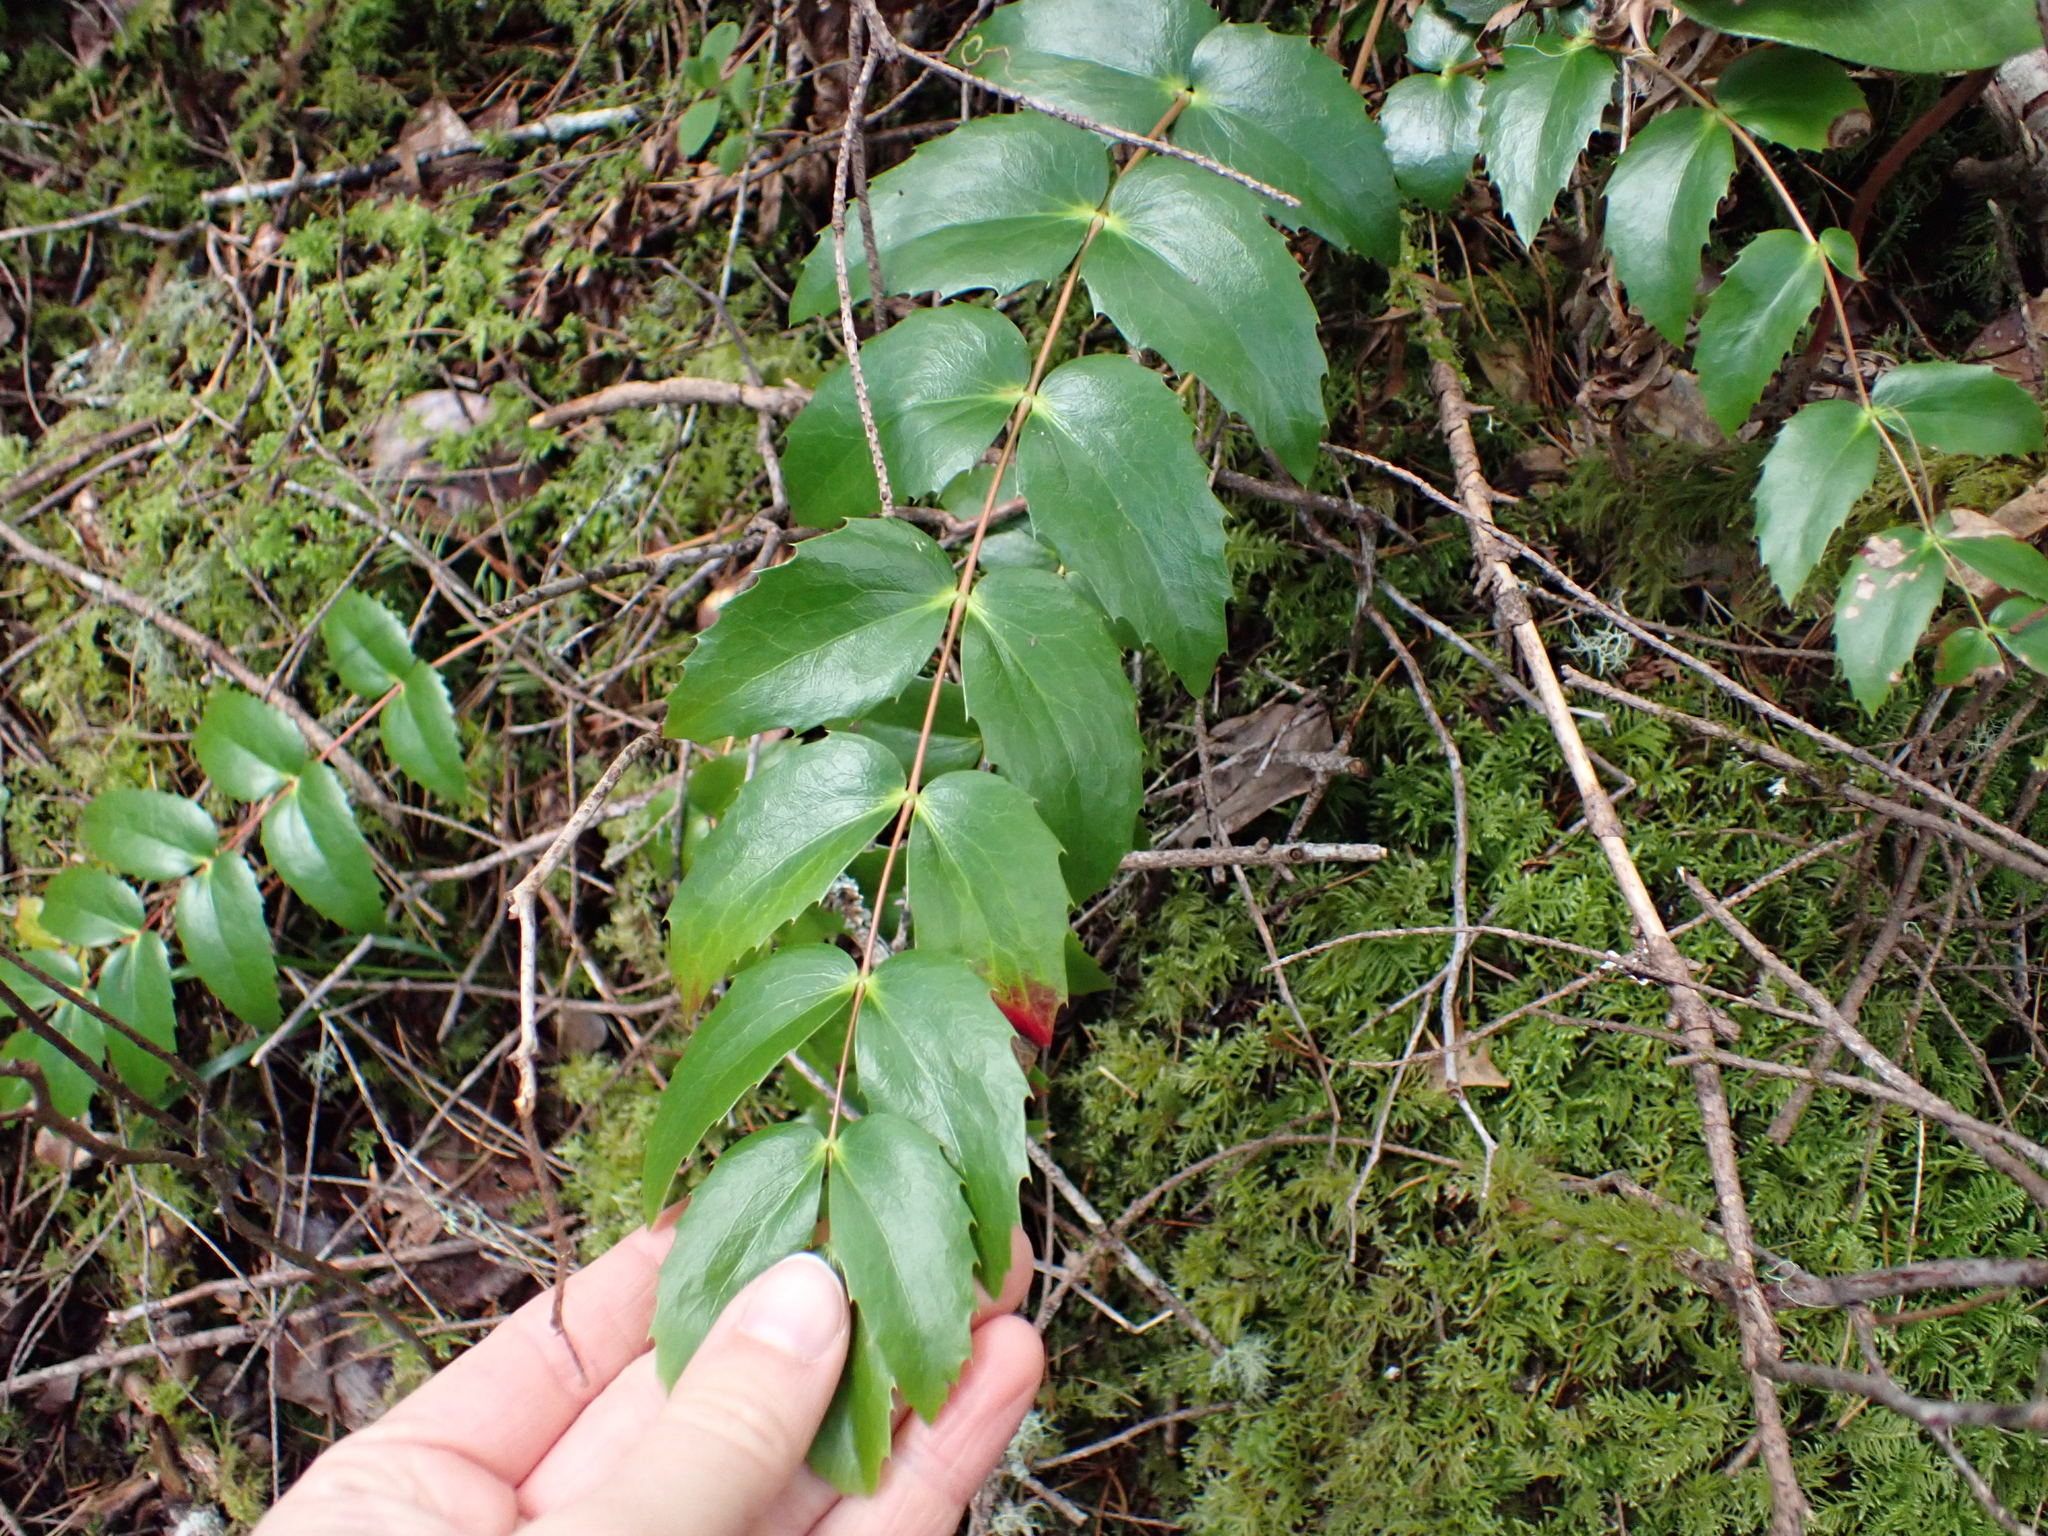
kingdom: Plantae
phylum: Tracheophyta
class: Magnoliopsida
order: Ranunculales
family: Berberidaceae
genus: Mahonia
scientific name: Mahonia nervosa
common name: Cascade oregon-grape
